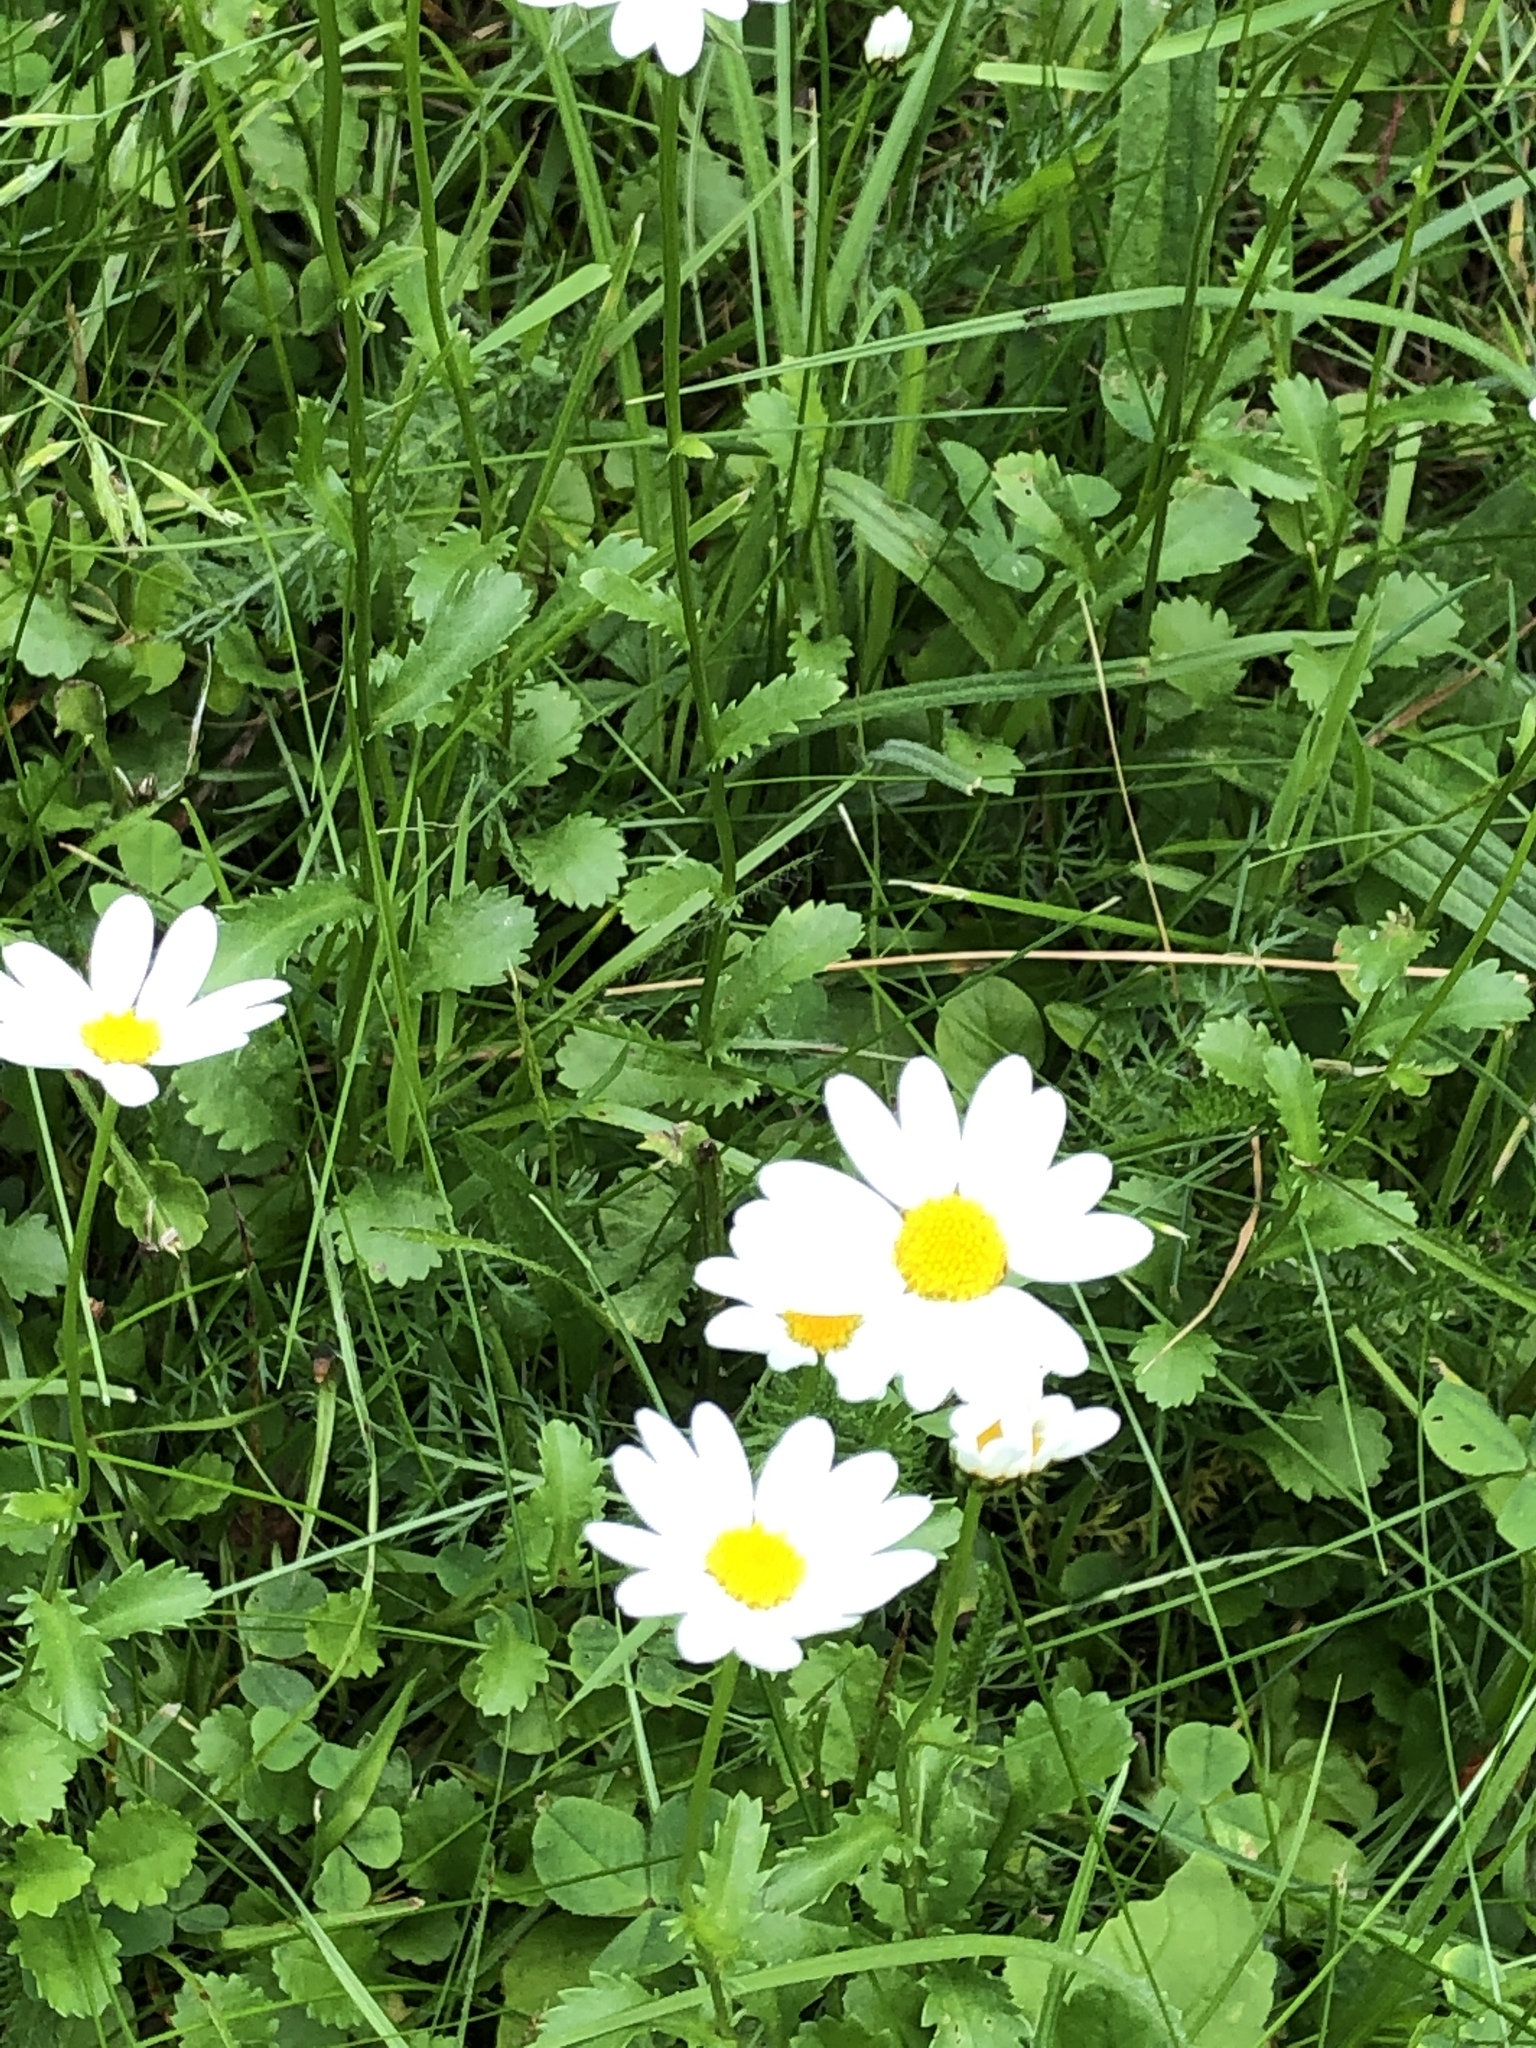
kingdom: Plantae
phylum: Tracheophyta
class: Magnoliopsida
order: Asterales
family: Asteraceae
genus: Leucanthemum
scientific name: Leucanthemum vulgare
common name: Oxeye daisy
